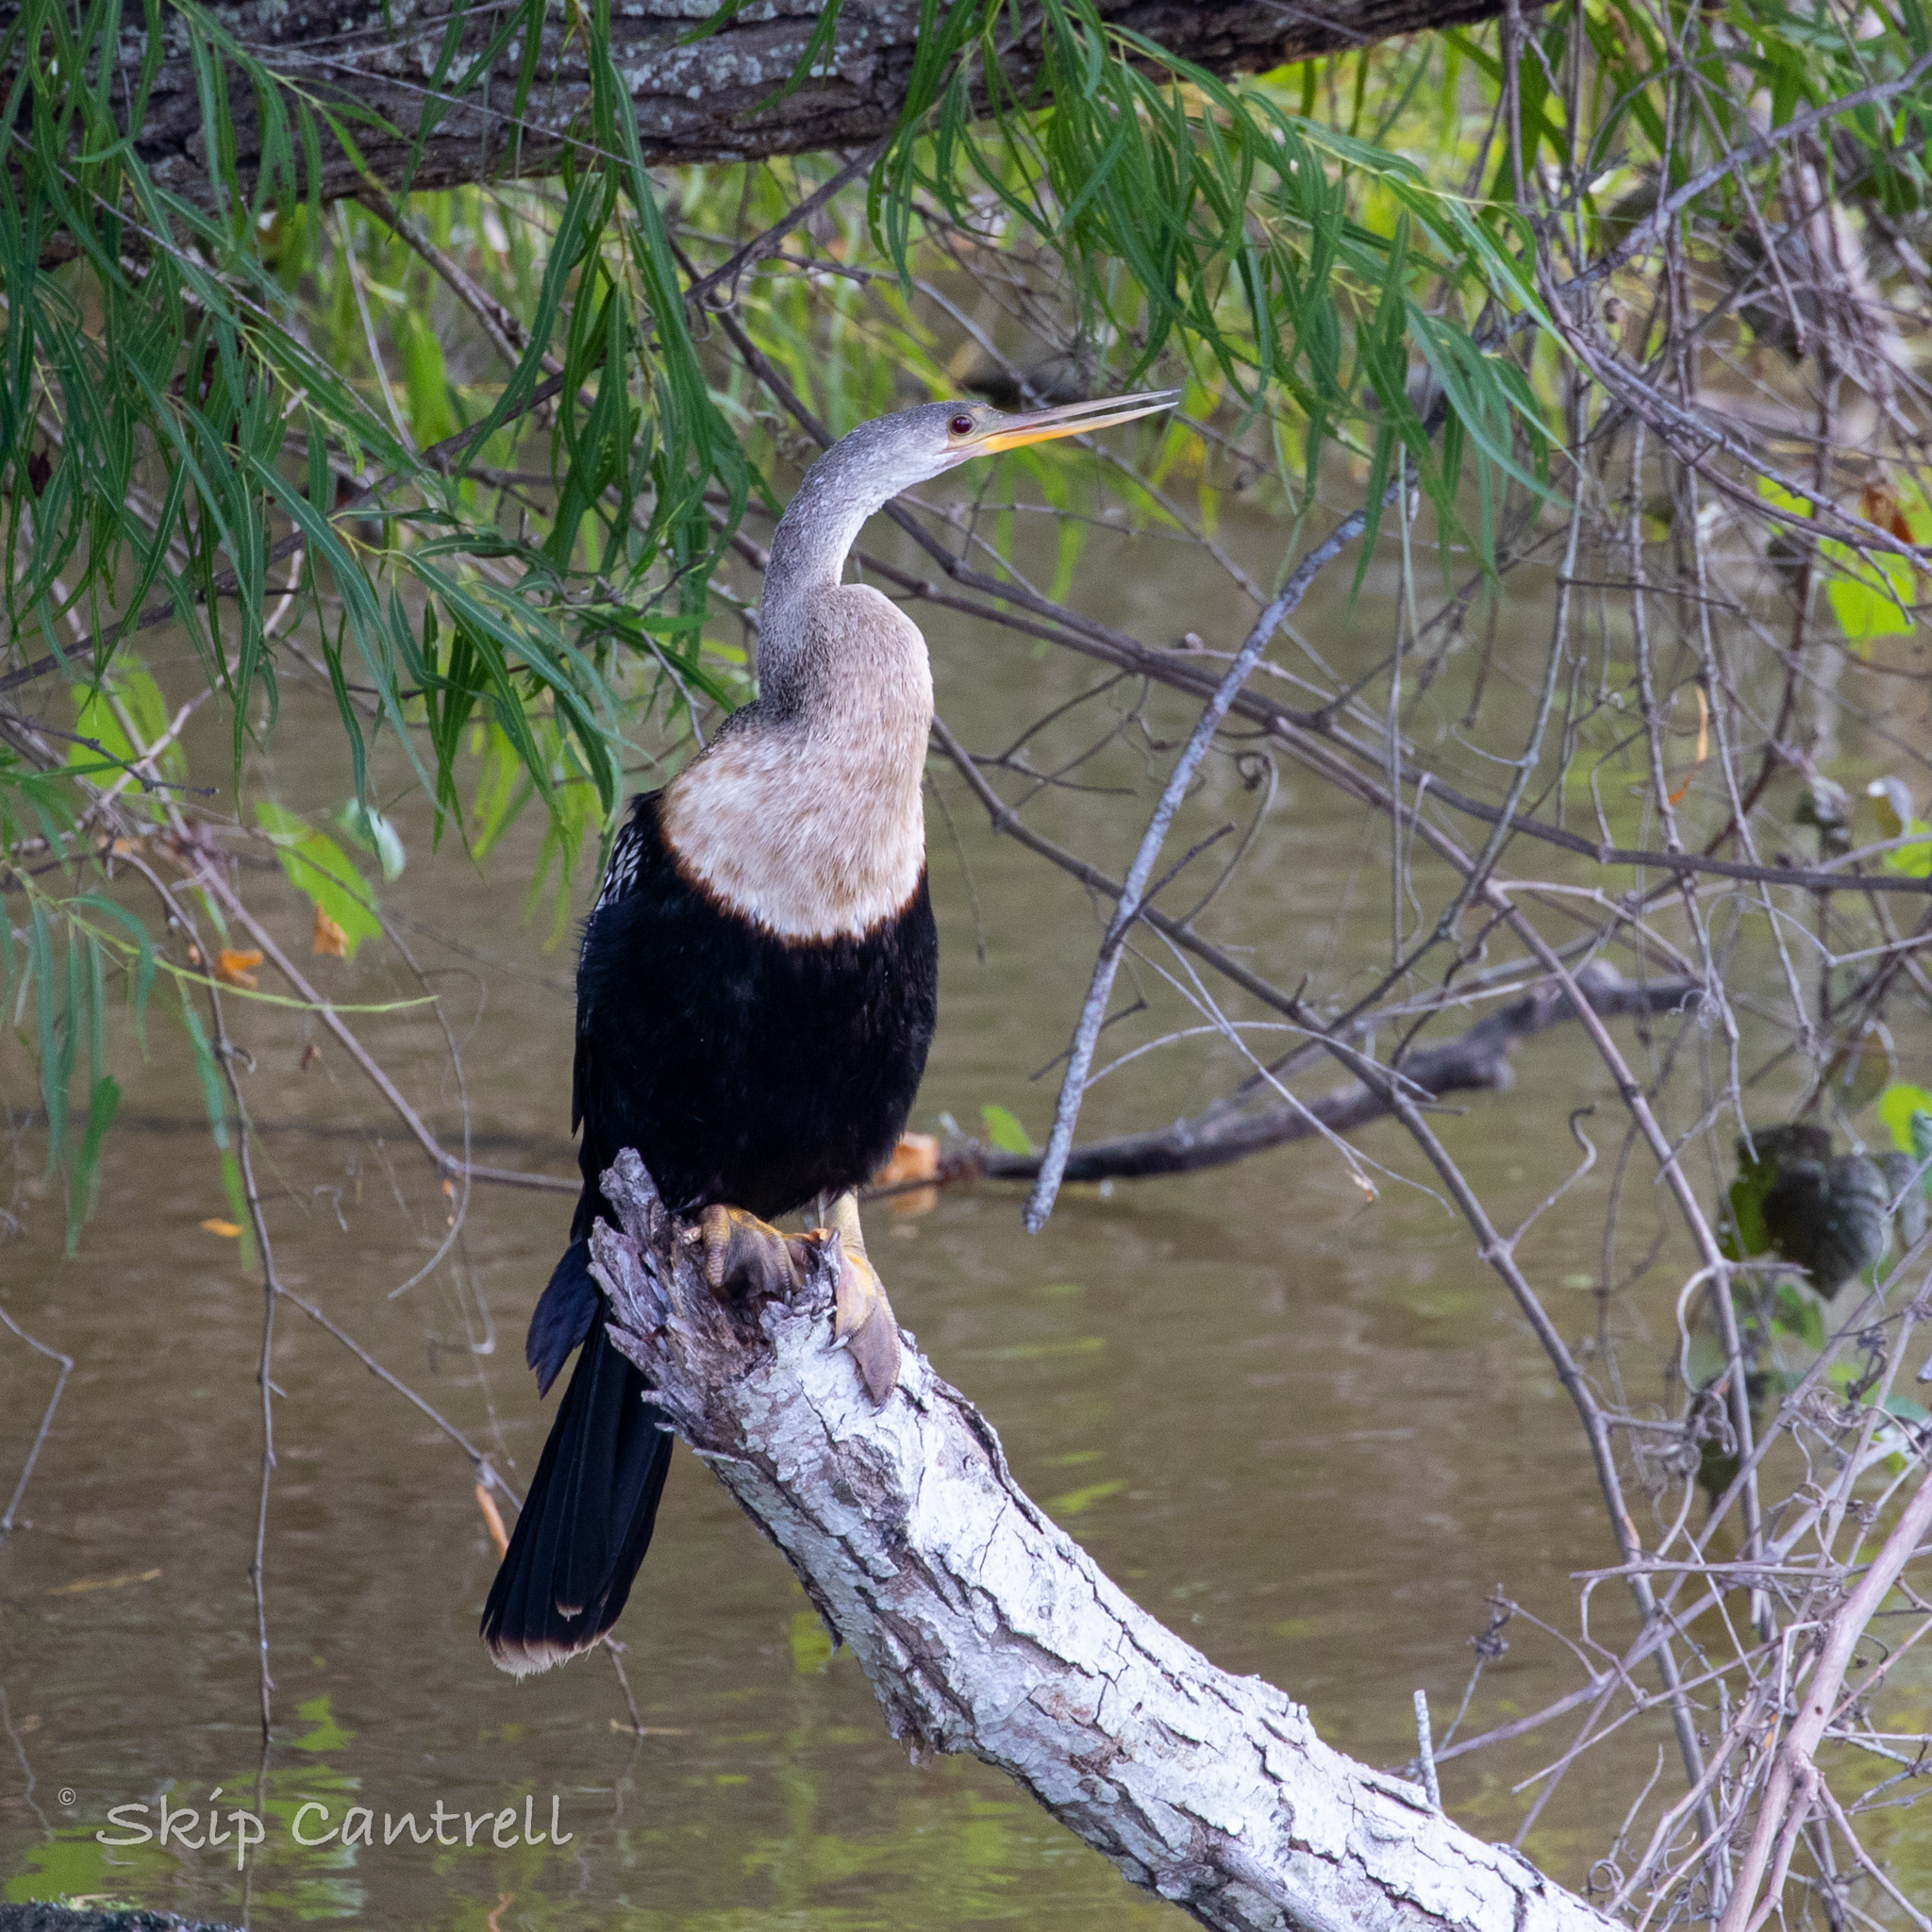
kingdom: Animalia
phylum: Chordata
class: Aves
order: Suliformes
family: Anhingidae
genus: Anhinga
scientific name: Anhinga anhinga
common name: Anhinga
